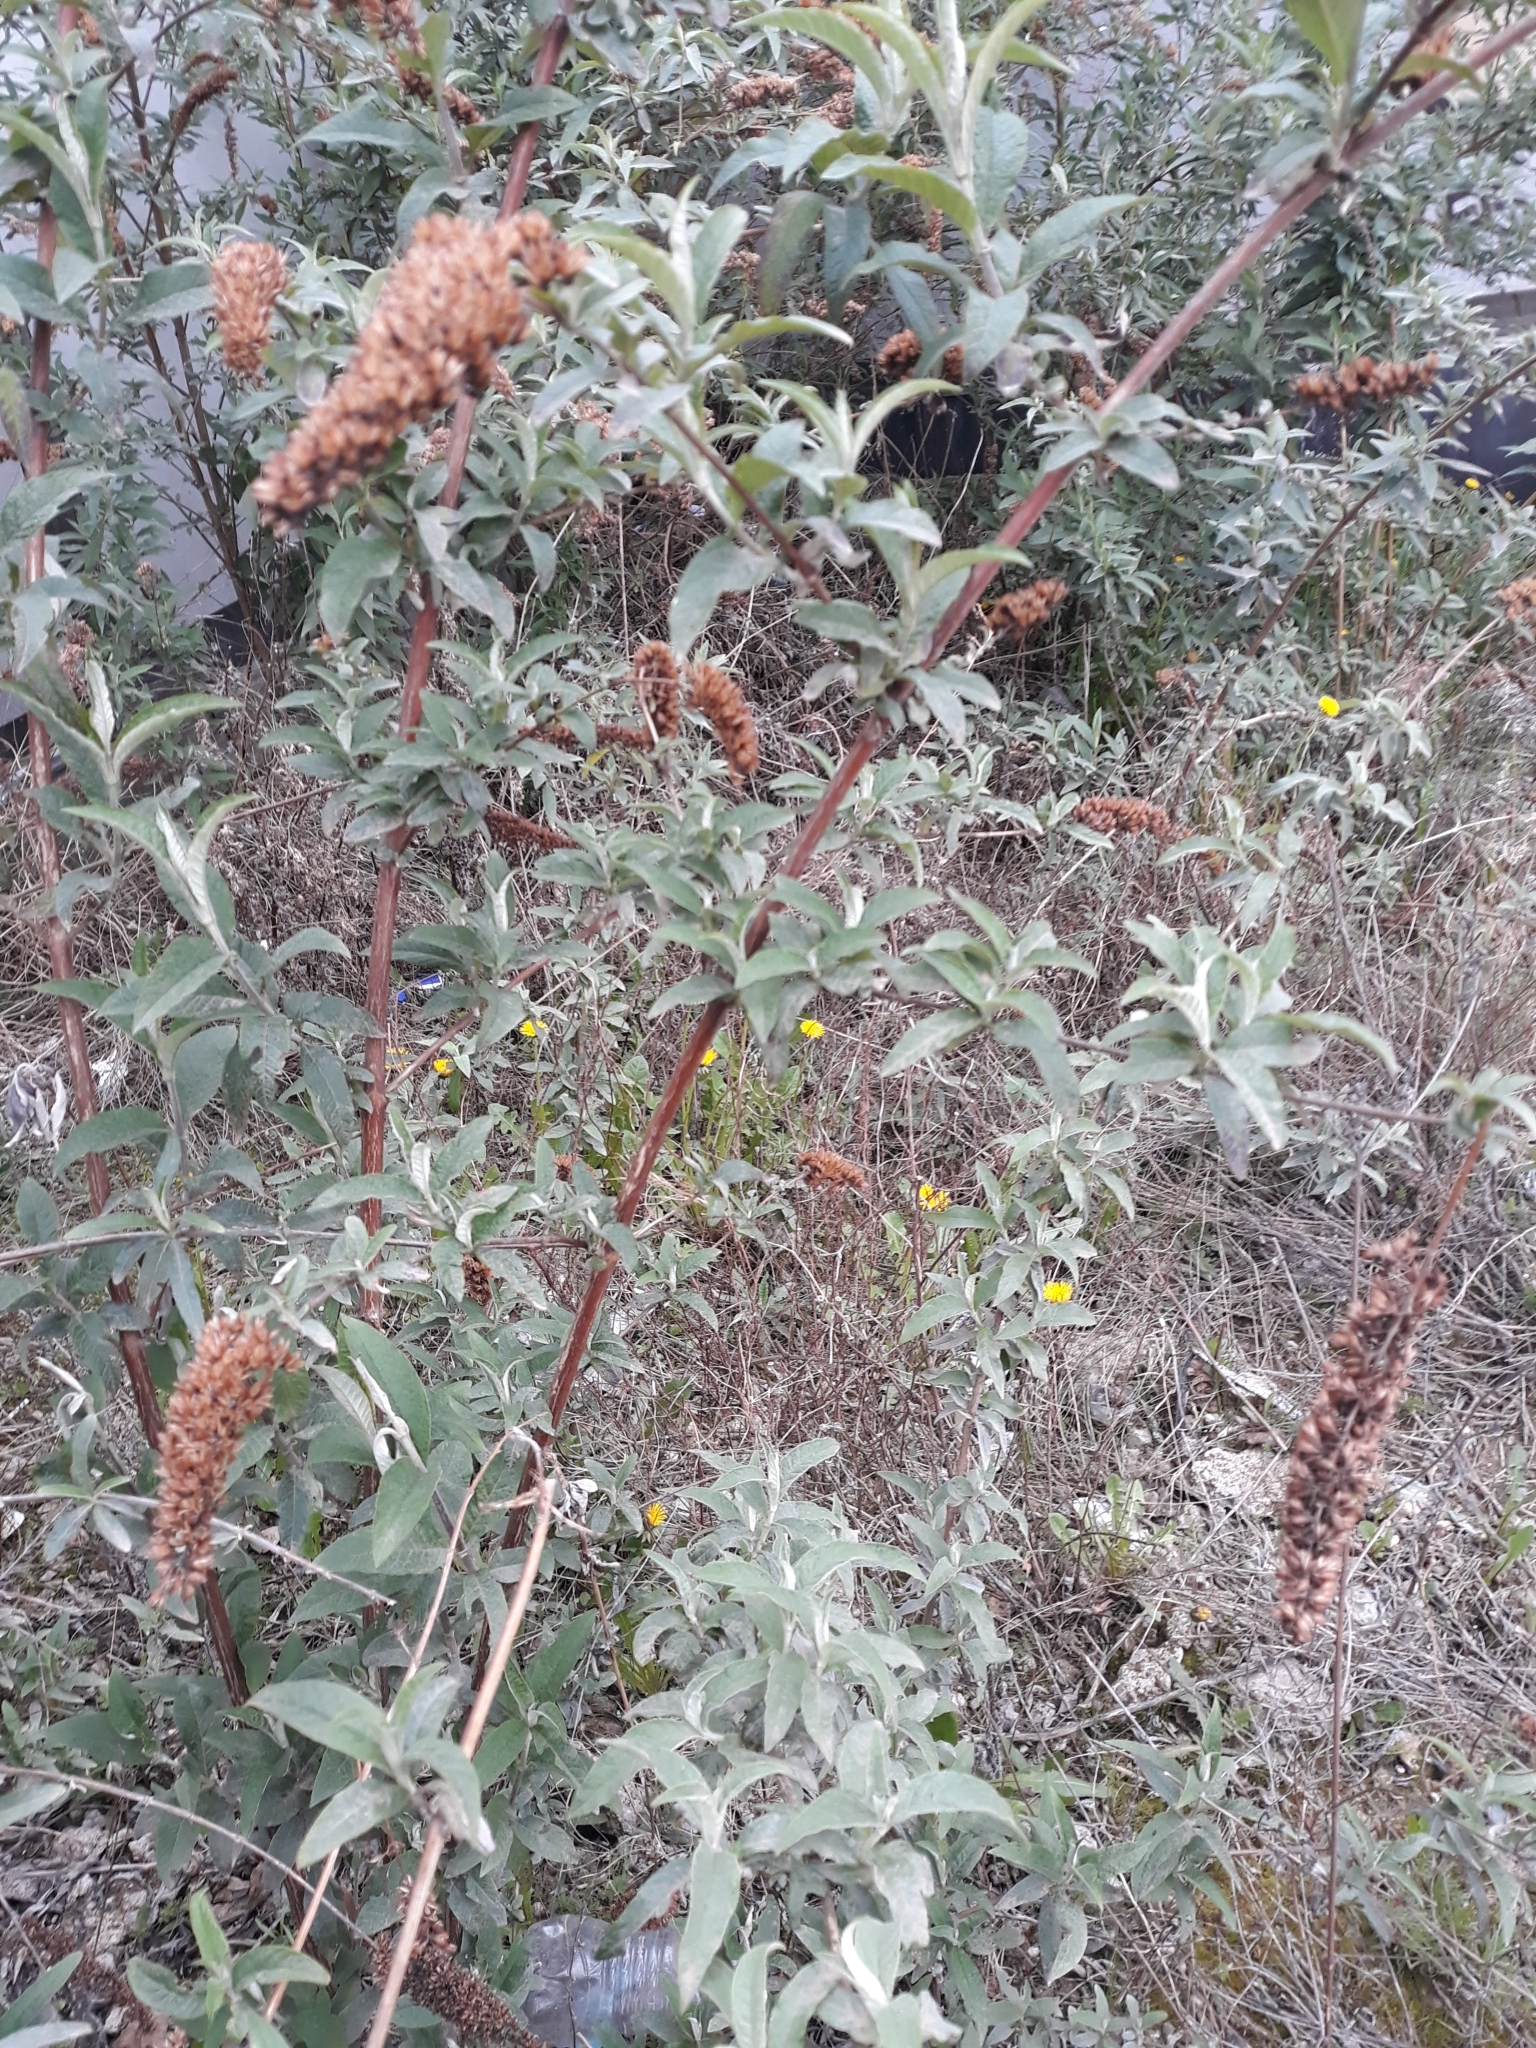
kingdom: Plantae
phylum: Tracheophyta
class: Magnoliopsida
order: Lamiales
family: Scrophulariaceae
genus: Buddleja
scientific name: Buddleja davidii
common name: Butterfly-bush
